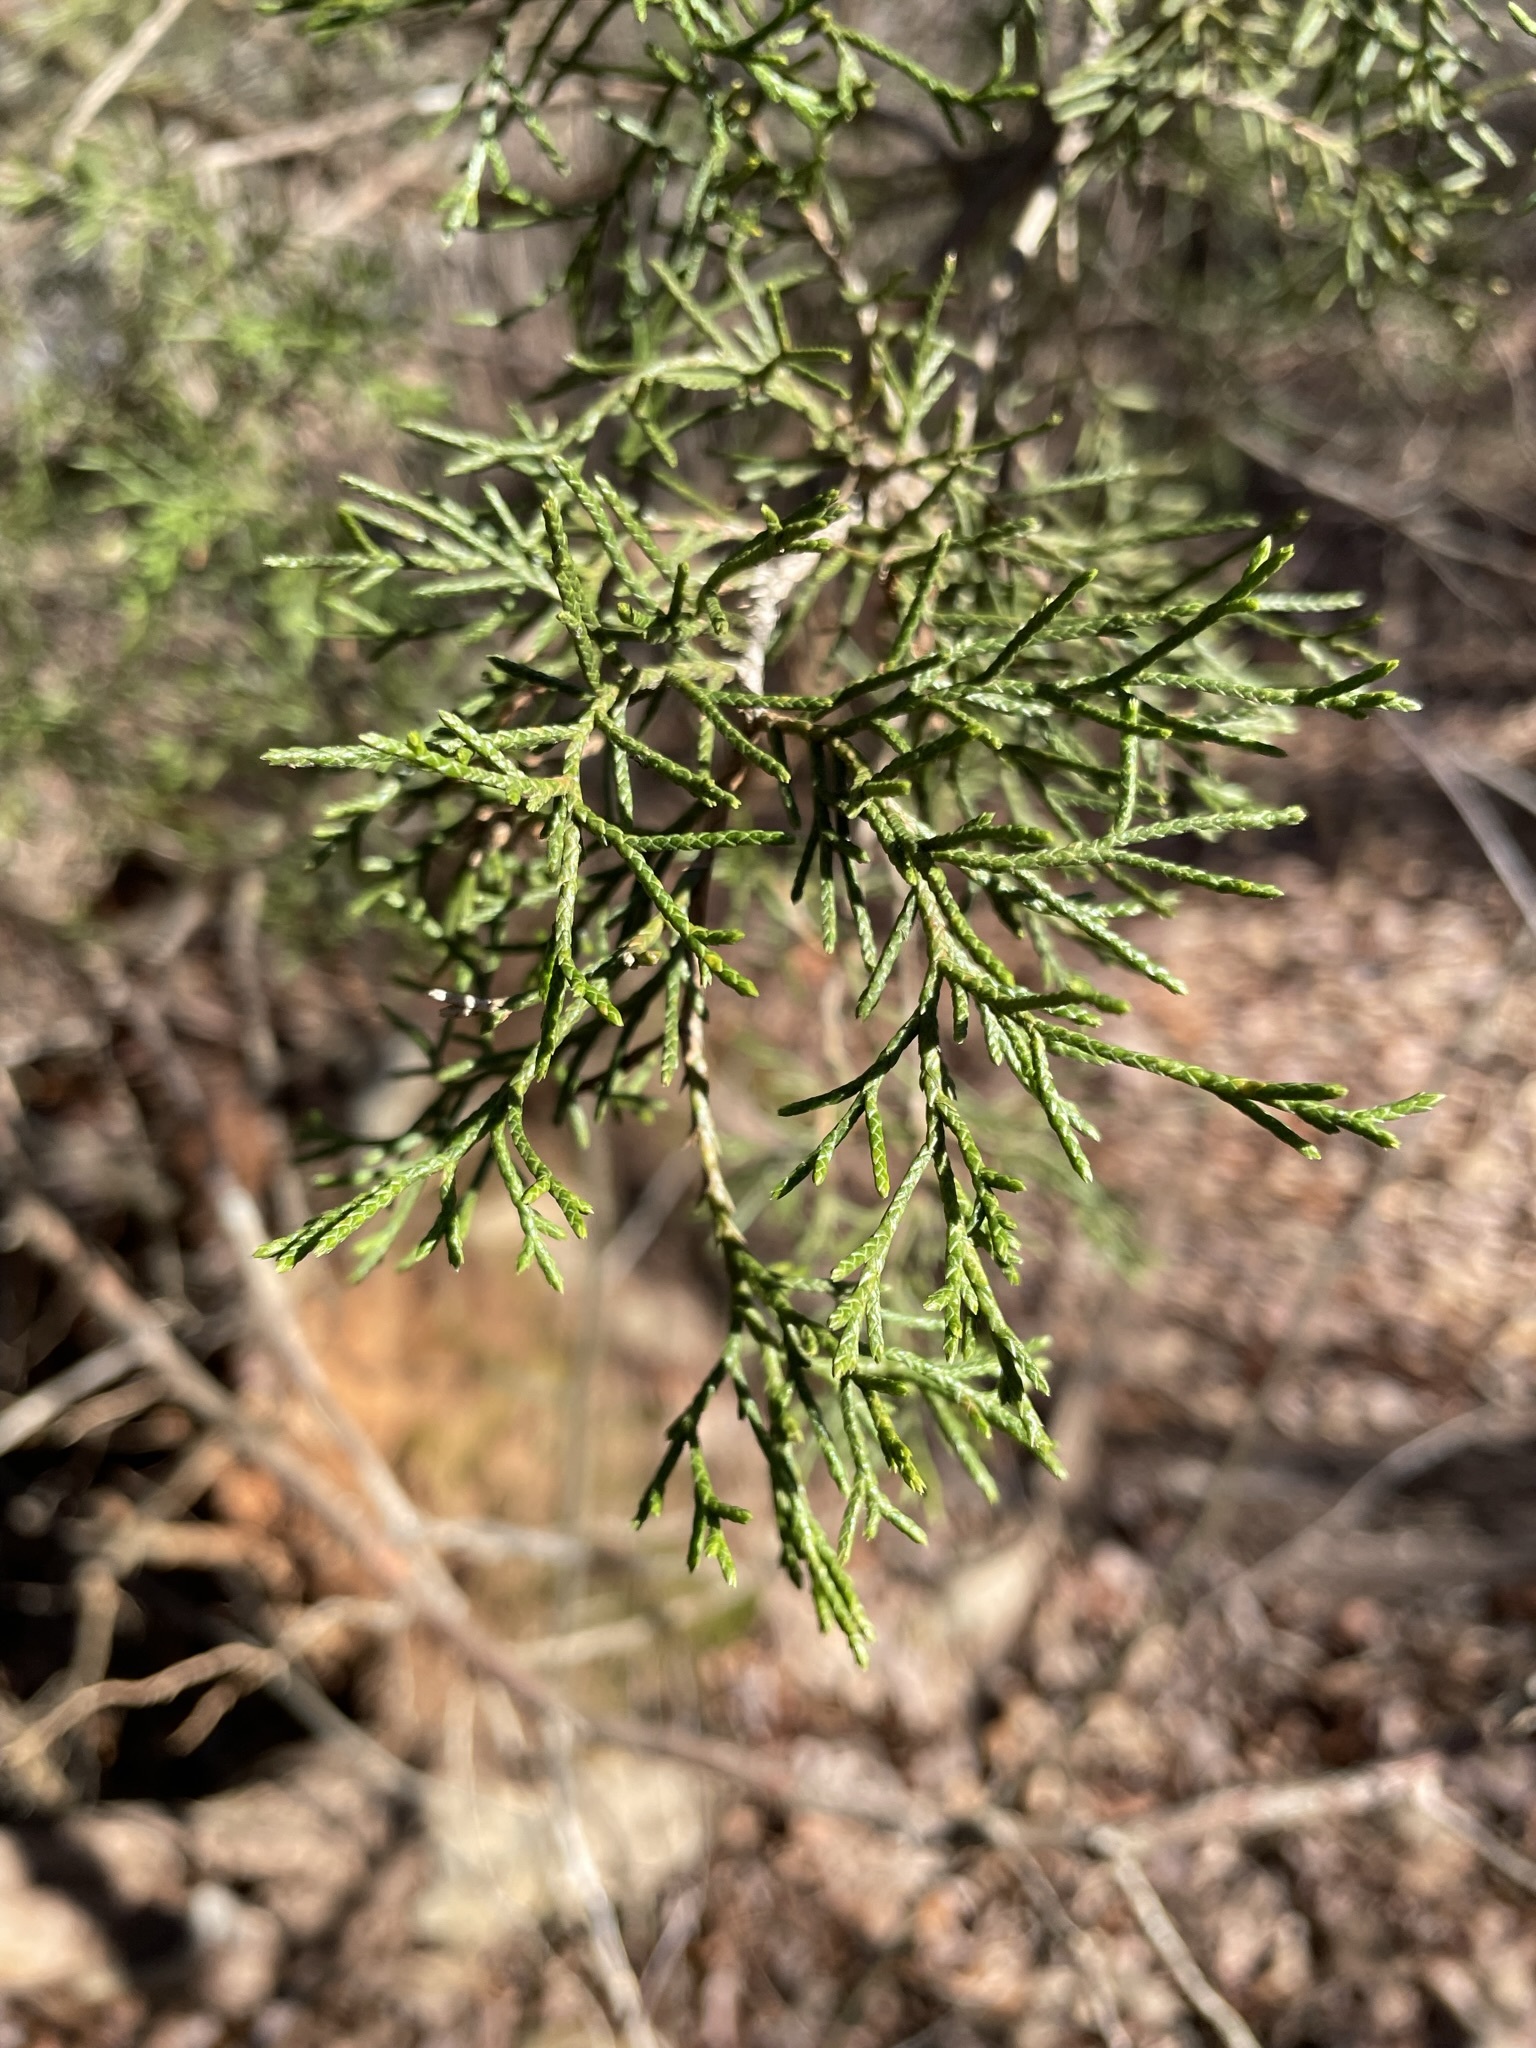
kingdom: Plantae
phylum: Tracheophyta
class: Pinopsida
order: Pinales
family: Cupressaceae
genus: Juniperus
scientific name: Juniperus virginiana
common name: Red juniper
